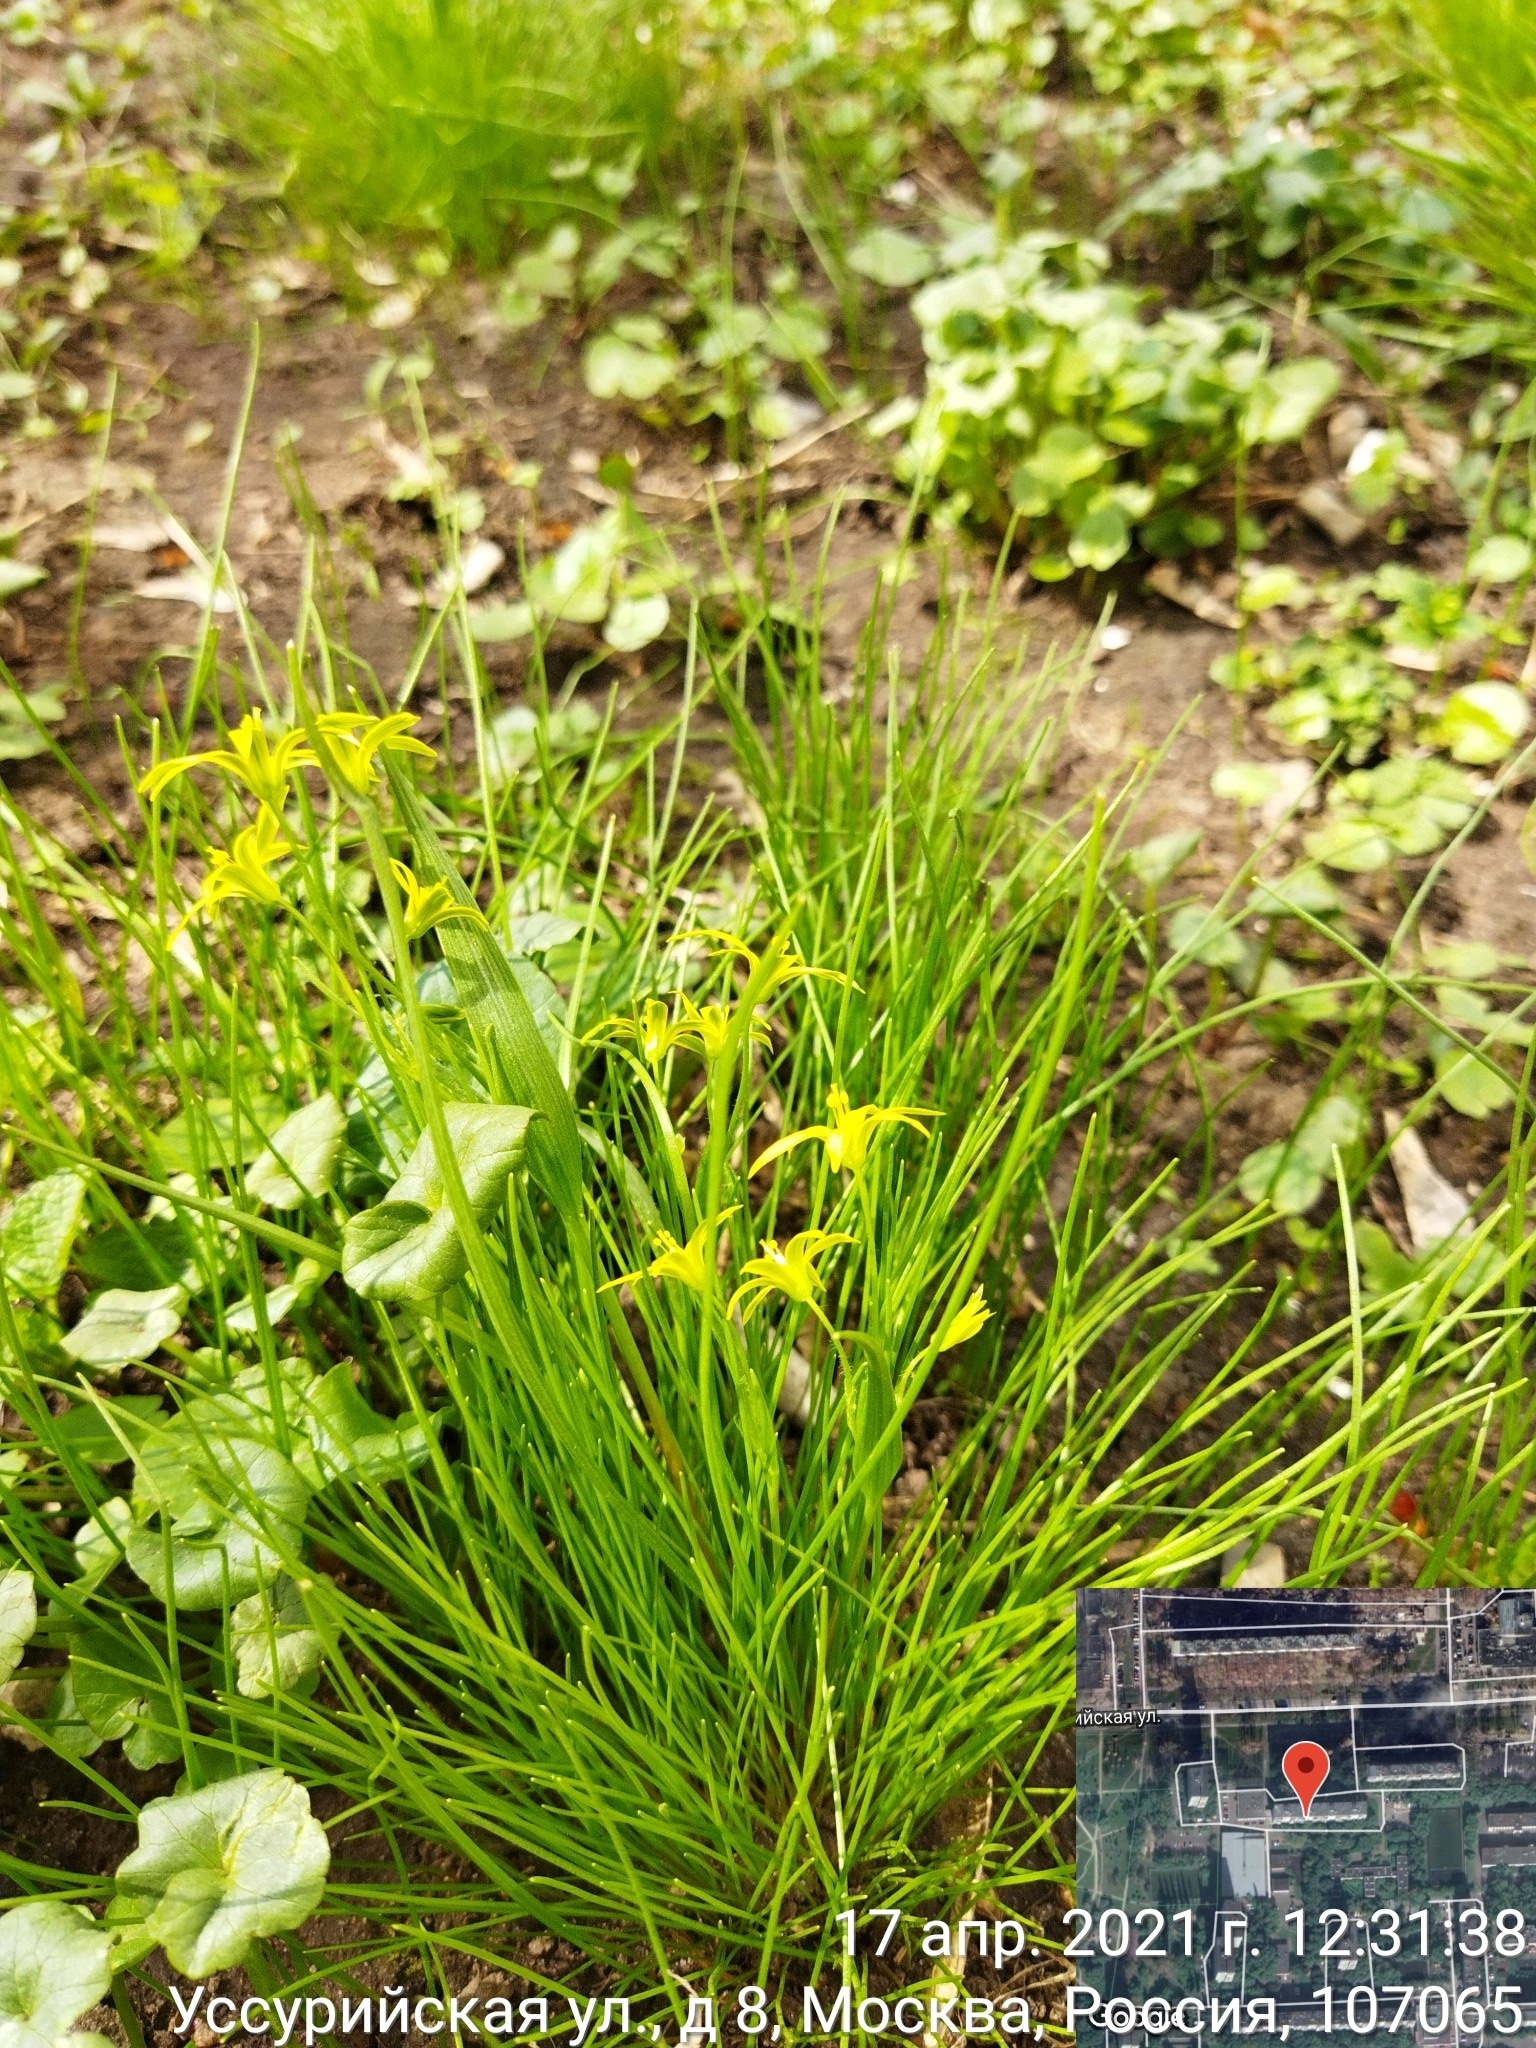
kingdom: Plantae
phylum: Tracheophyta
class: Liliopsida
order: Liliales
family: Liliaceae
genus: Gagea
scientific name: Gagea minima
